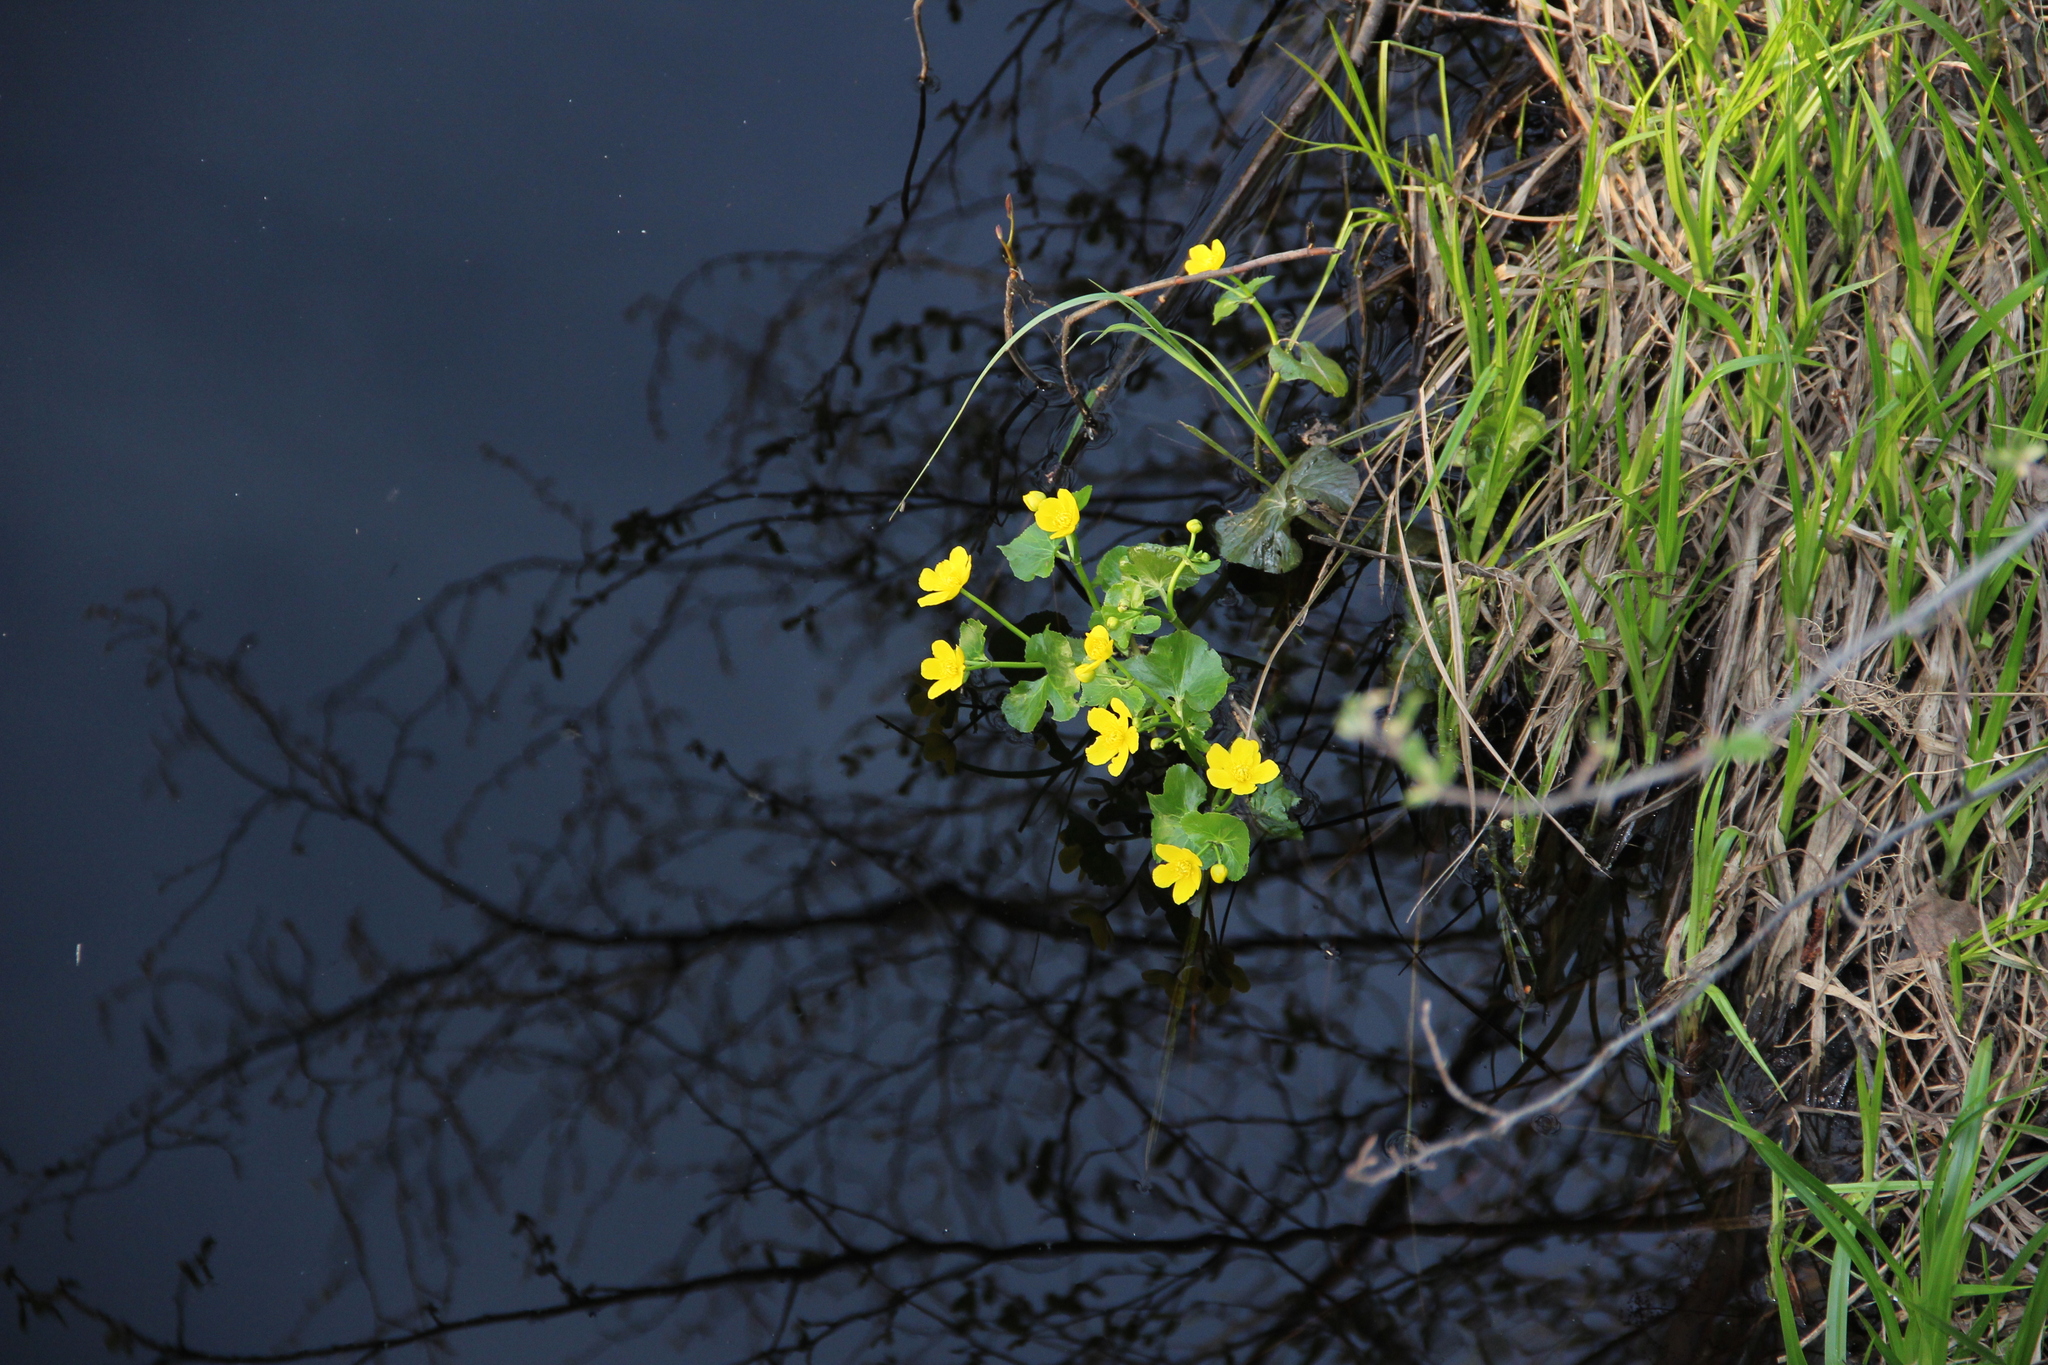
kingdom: Plantae
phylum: Tracheophyta
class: Magnoliopsida
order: Ranunculales
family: Ranunculaceae
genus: Caltha
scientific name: Caltha palustris
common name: Marsh marigold
